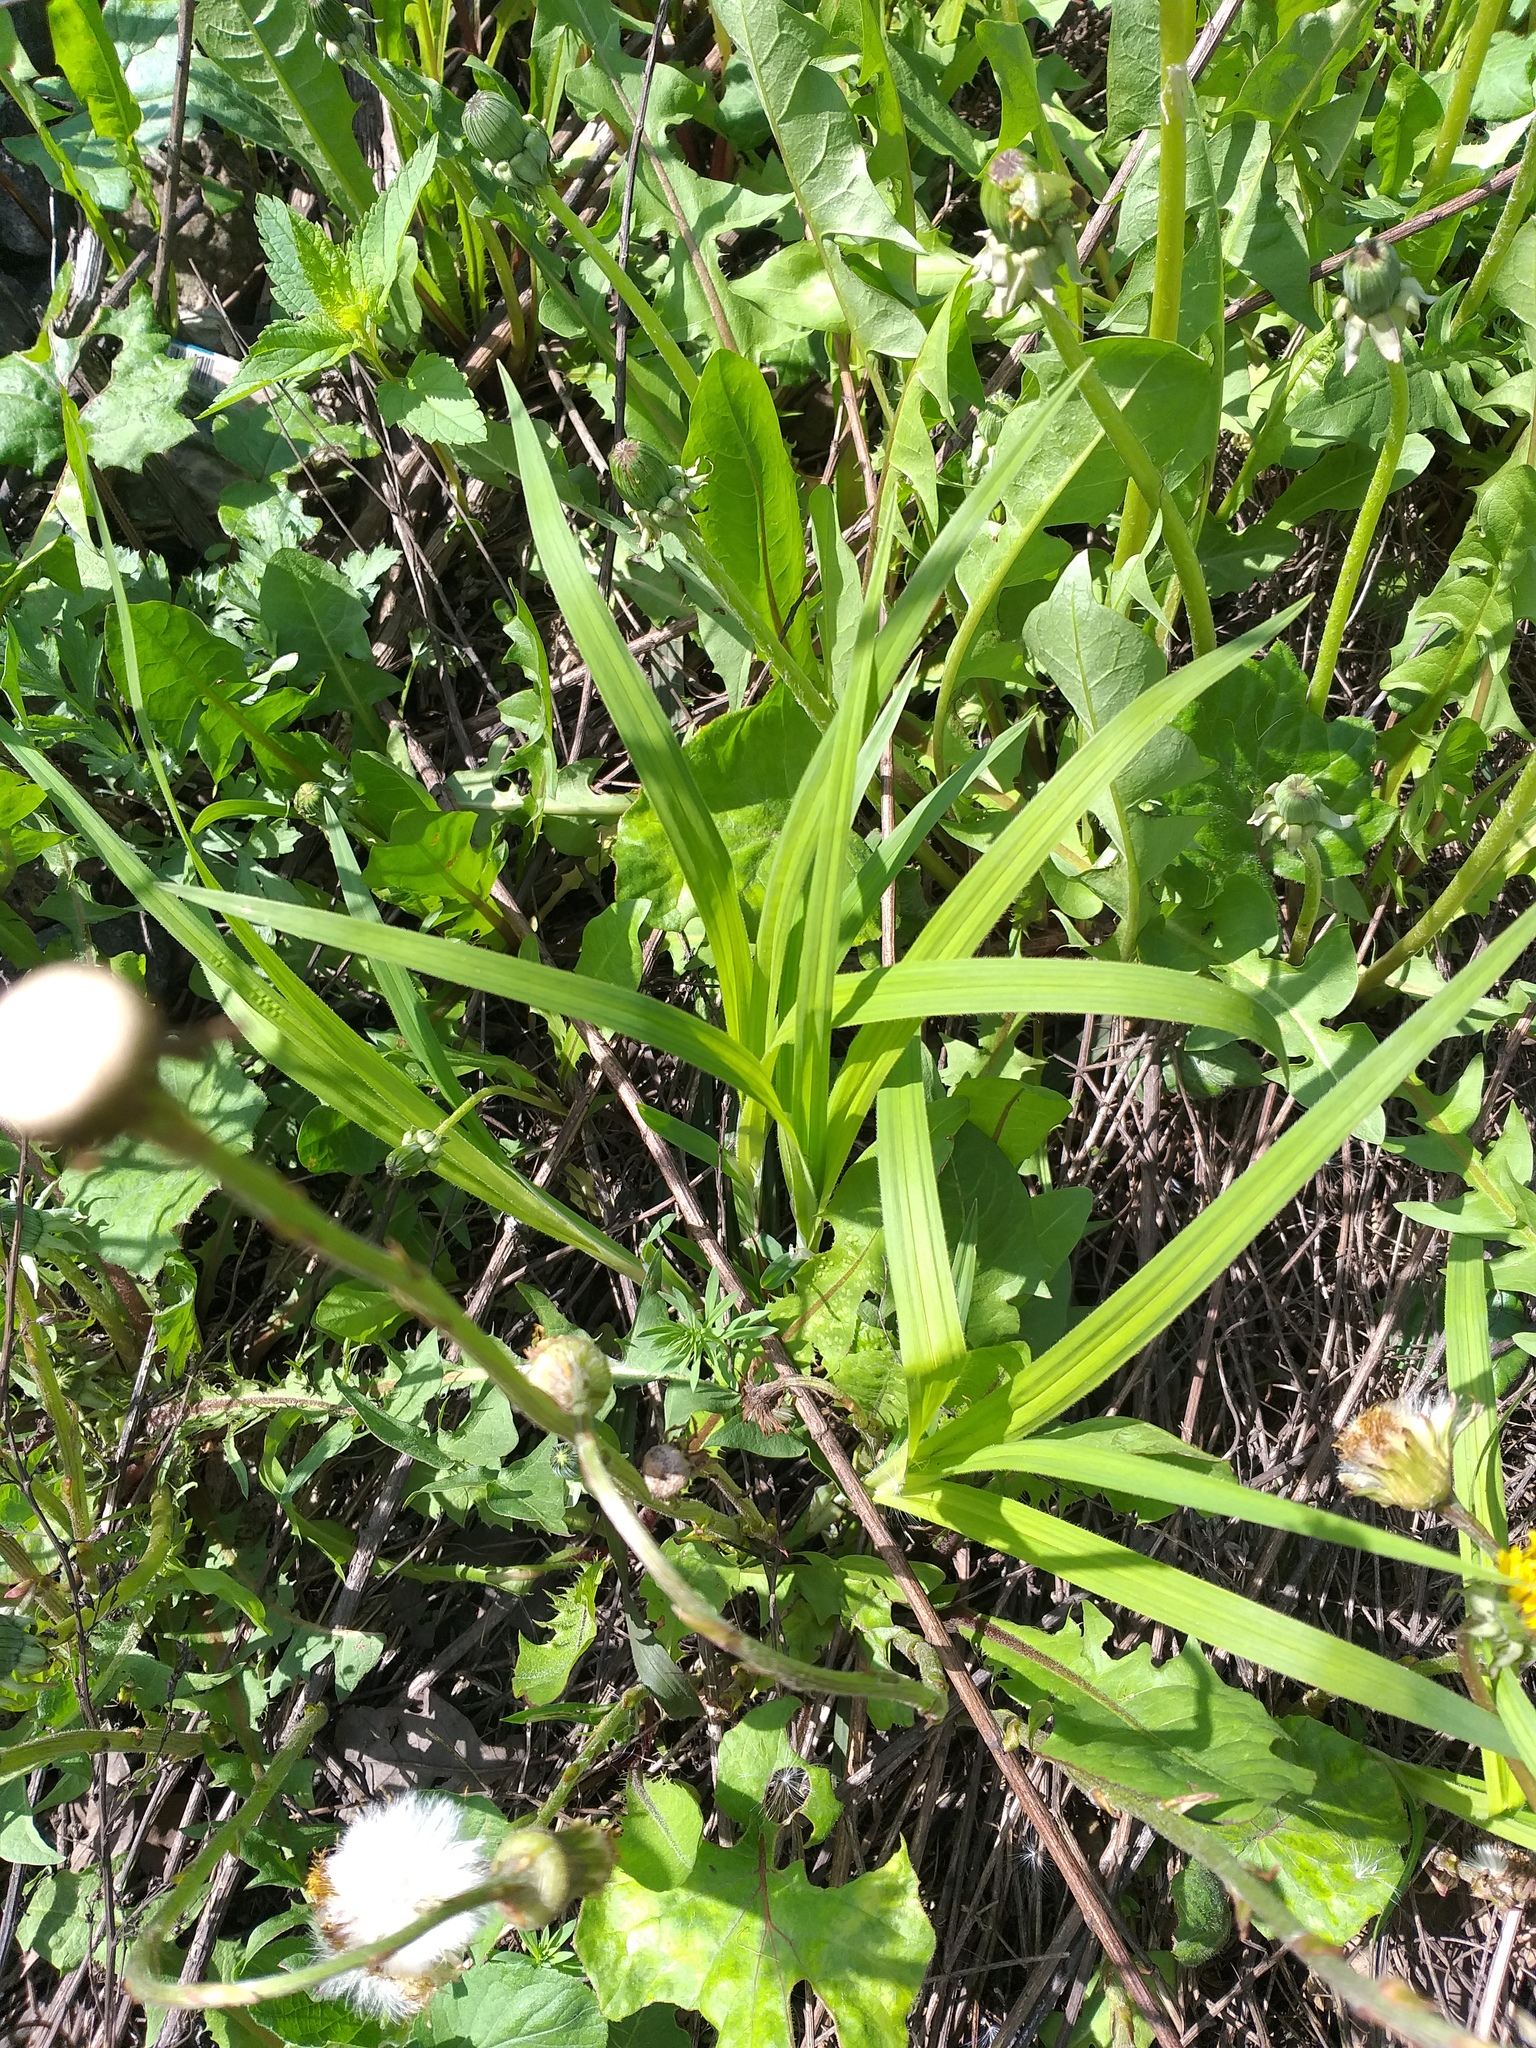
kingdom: Plantae
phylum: Tracheophyta
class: Liliopsida
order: Poales
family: Cyperaceae
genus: Carex
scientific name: Carex pilosa
